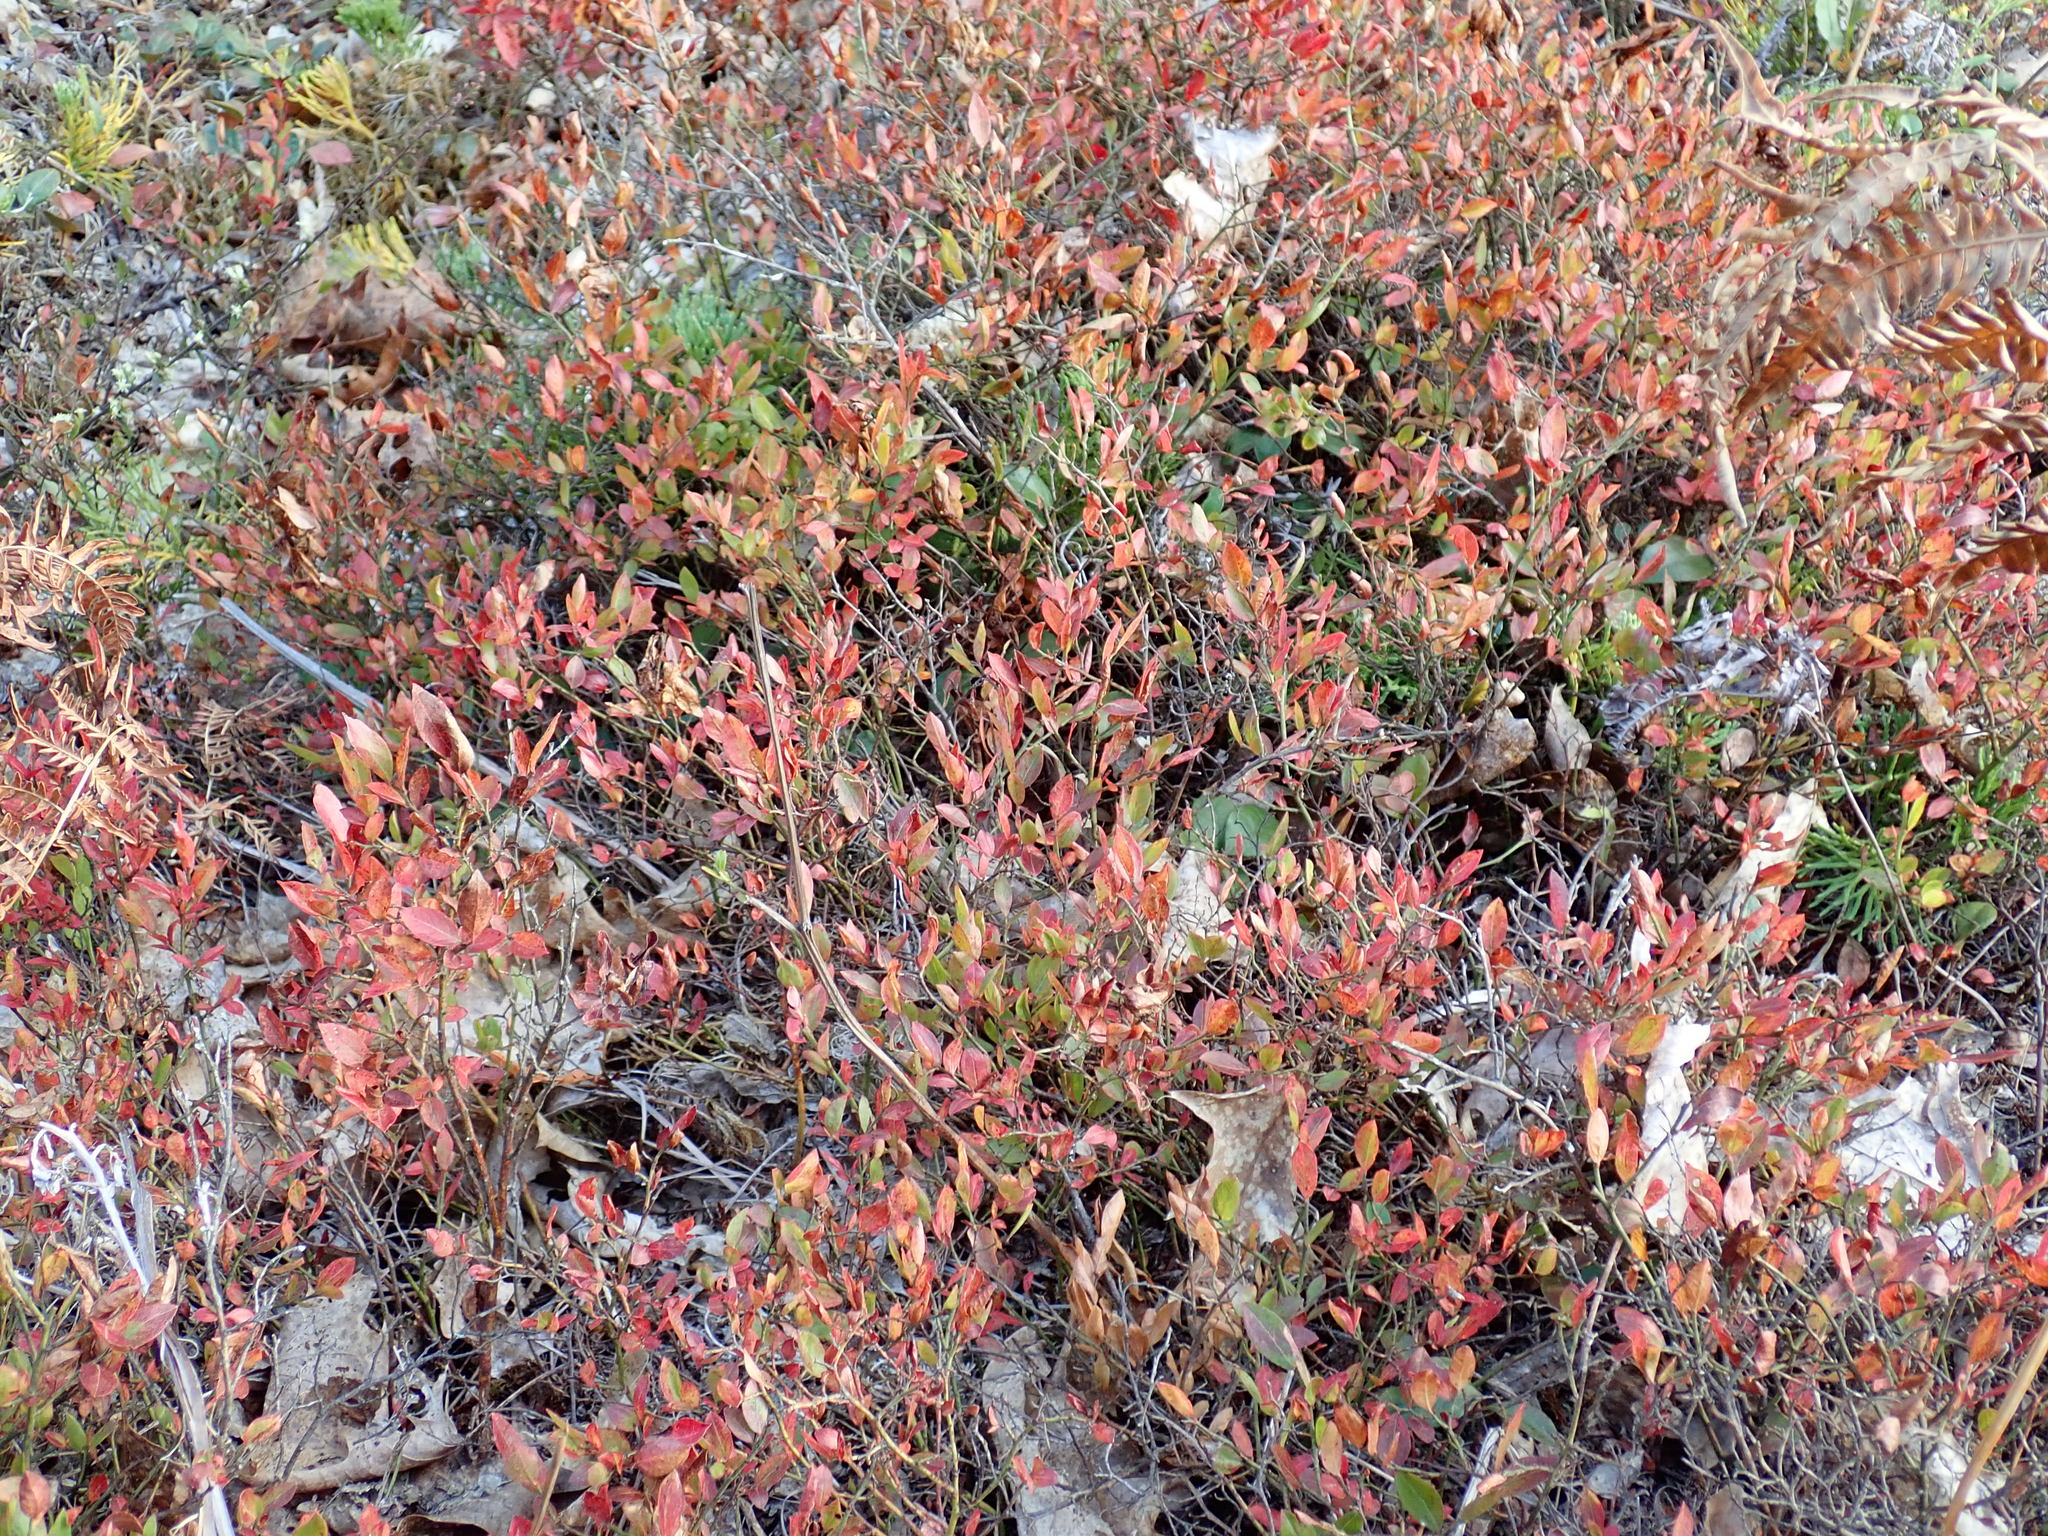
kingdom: Plantae
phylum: Tracheophyta
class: Magnoliopsida
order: Ericales
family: Ericaceae
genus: Vaccinium
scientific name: Vaccinium angustifolium
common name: Early lowbush blueberry
